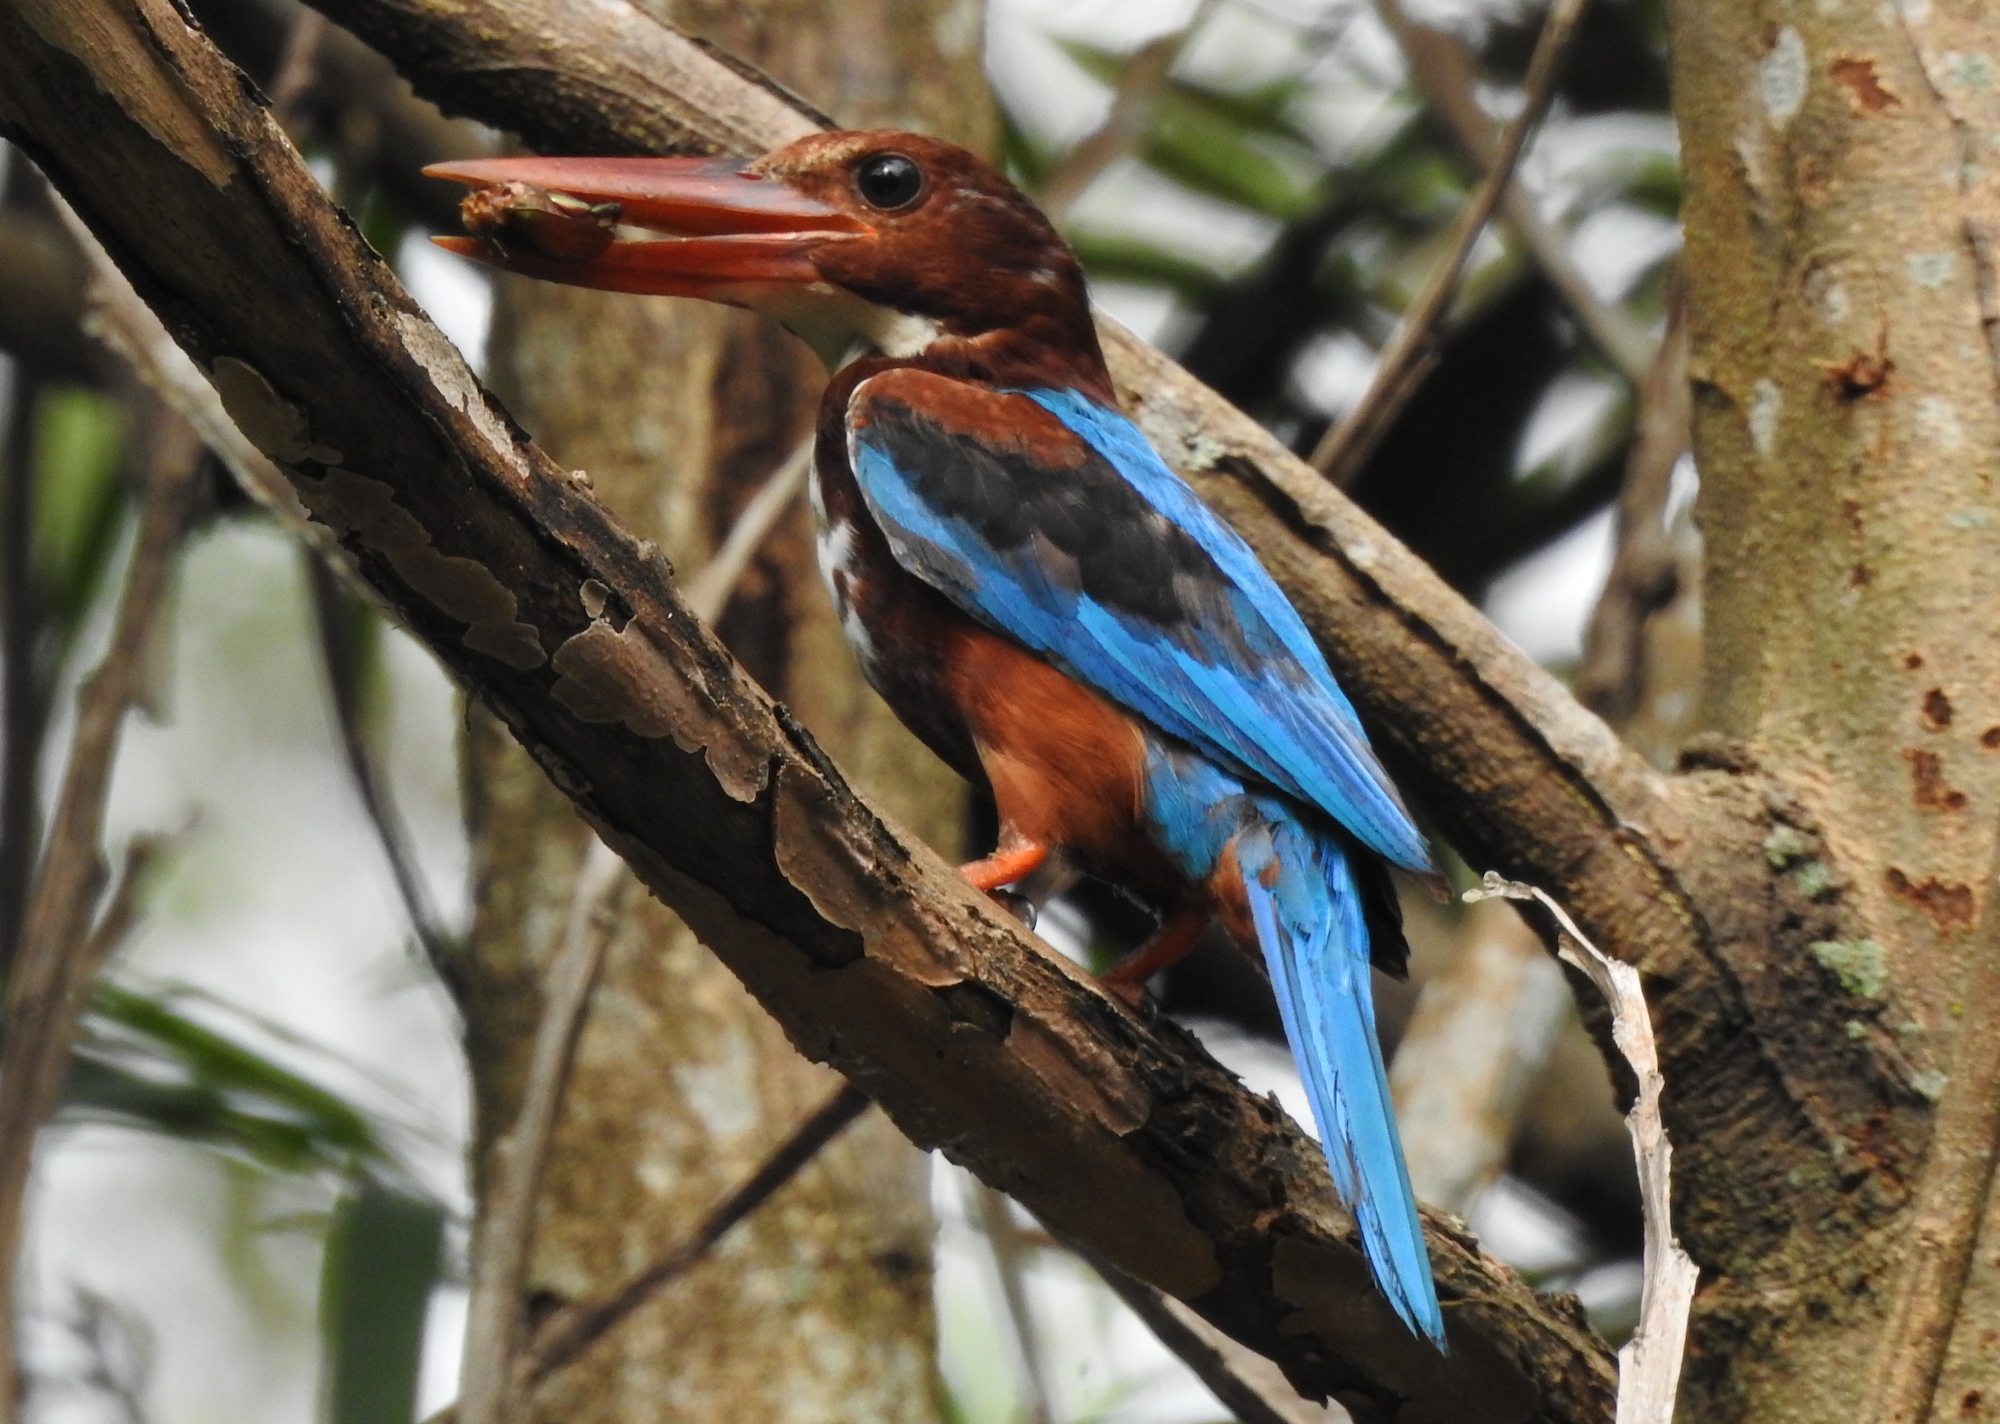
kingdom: Animalia
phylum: Chordata
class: Aves
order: Coraciiformes
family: Alcedinidae
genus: Halcyon
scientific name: Halcyon smyrnensis
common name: White-throated kingfisher
